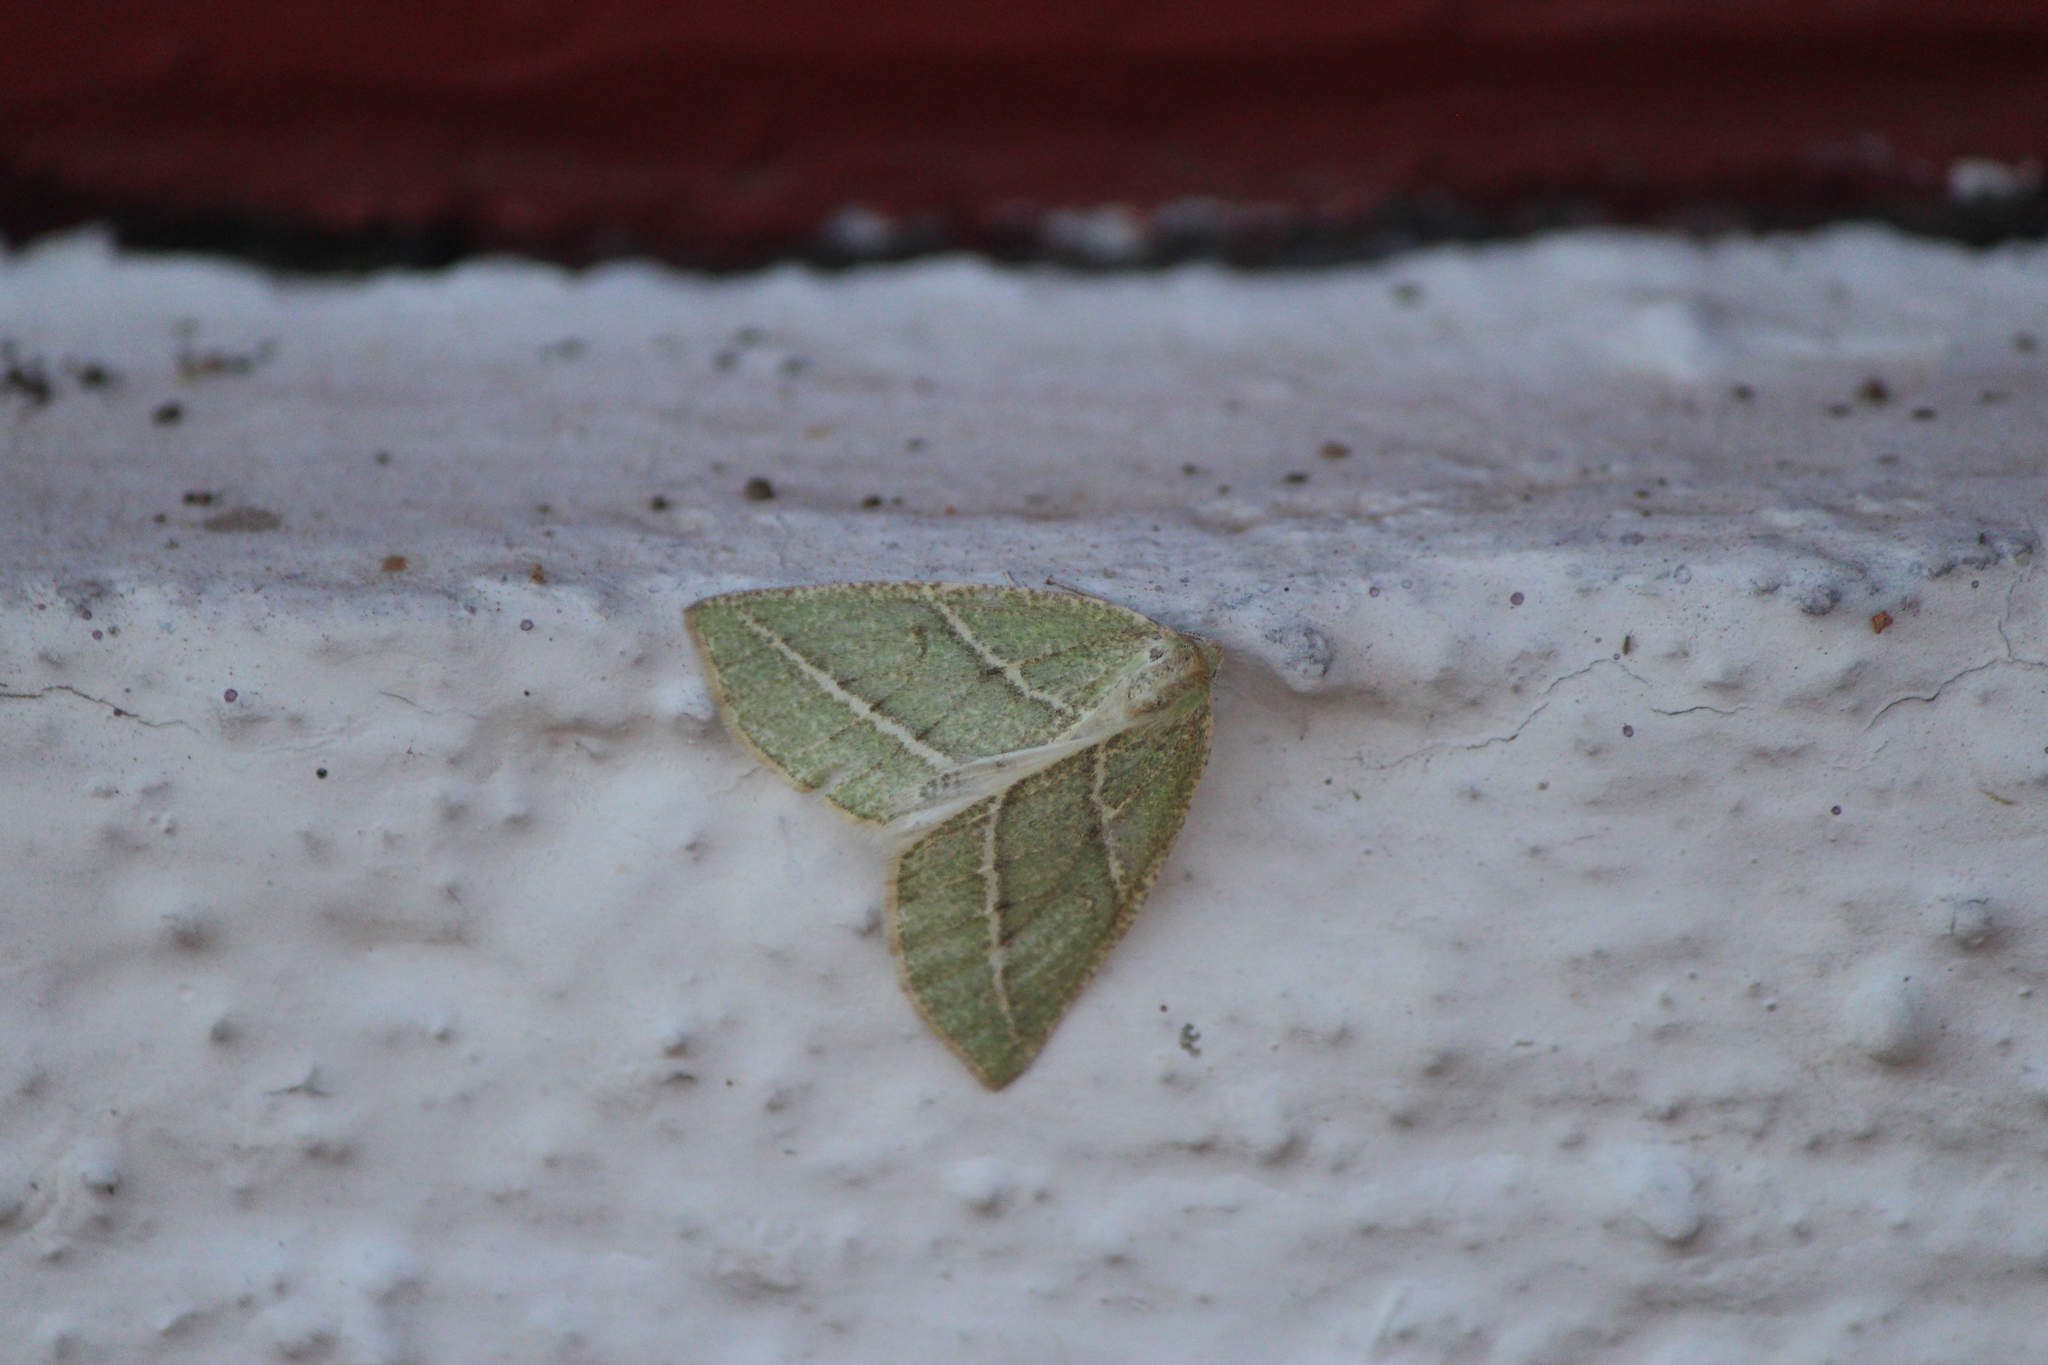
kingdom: Animalia
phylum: Arthropoda
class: Insecta
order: Lepidoptera
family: Geometridae
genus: Synchlora
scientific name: Synchlora bistriaria
